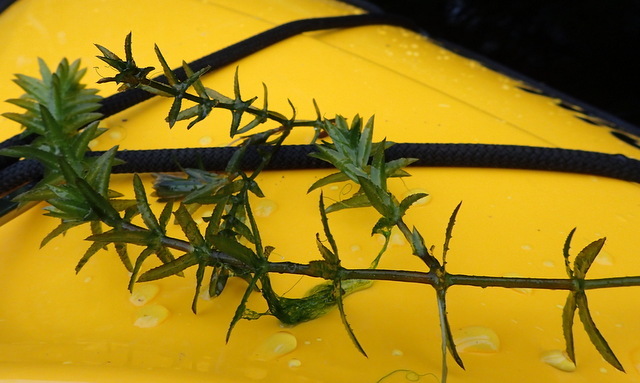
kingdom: Plantae
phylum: Tracheophyta
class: Liliopsida
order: Alismatales
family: Hydrocharitaceae
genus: Hydrilla
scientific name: Hydrilla verticillata
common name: Florida-elodea
